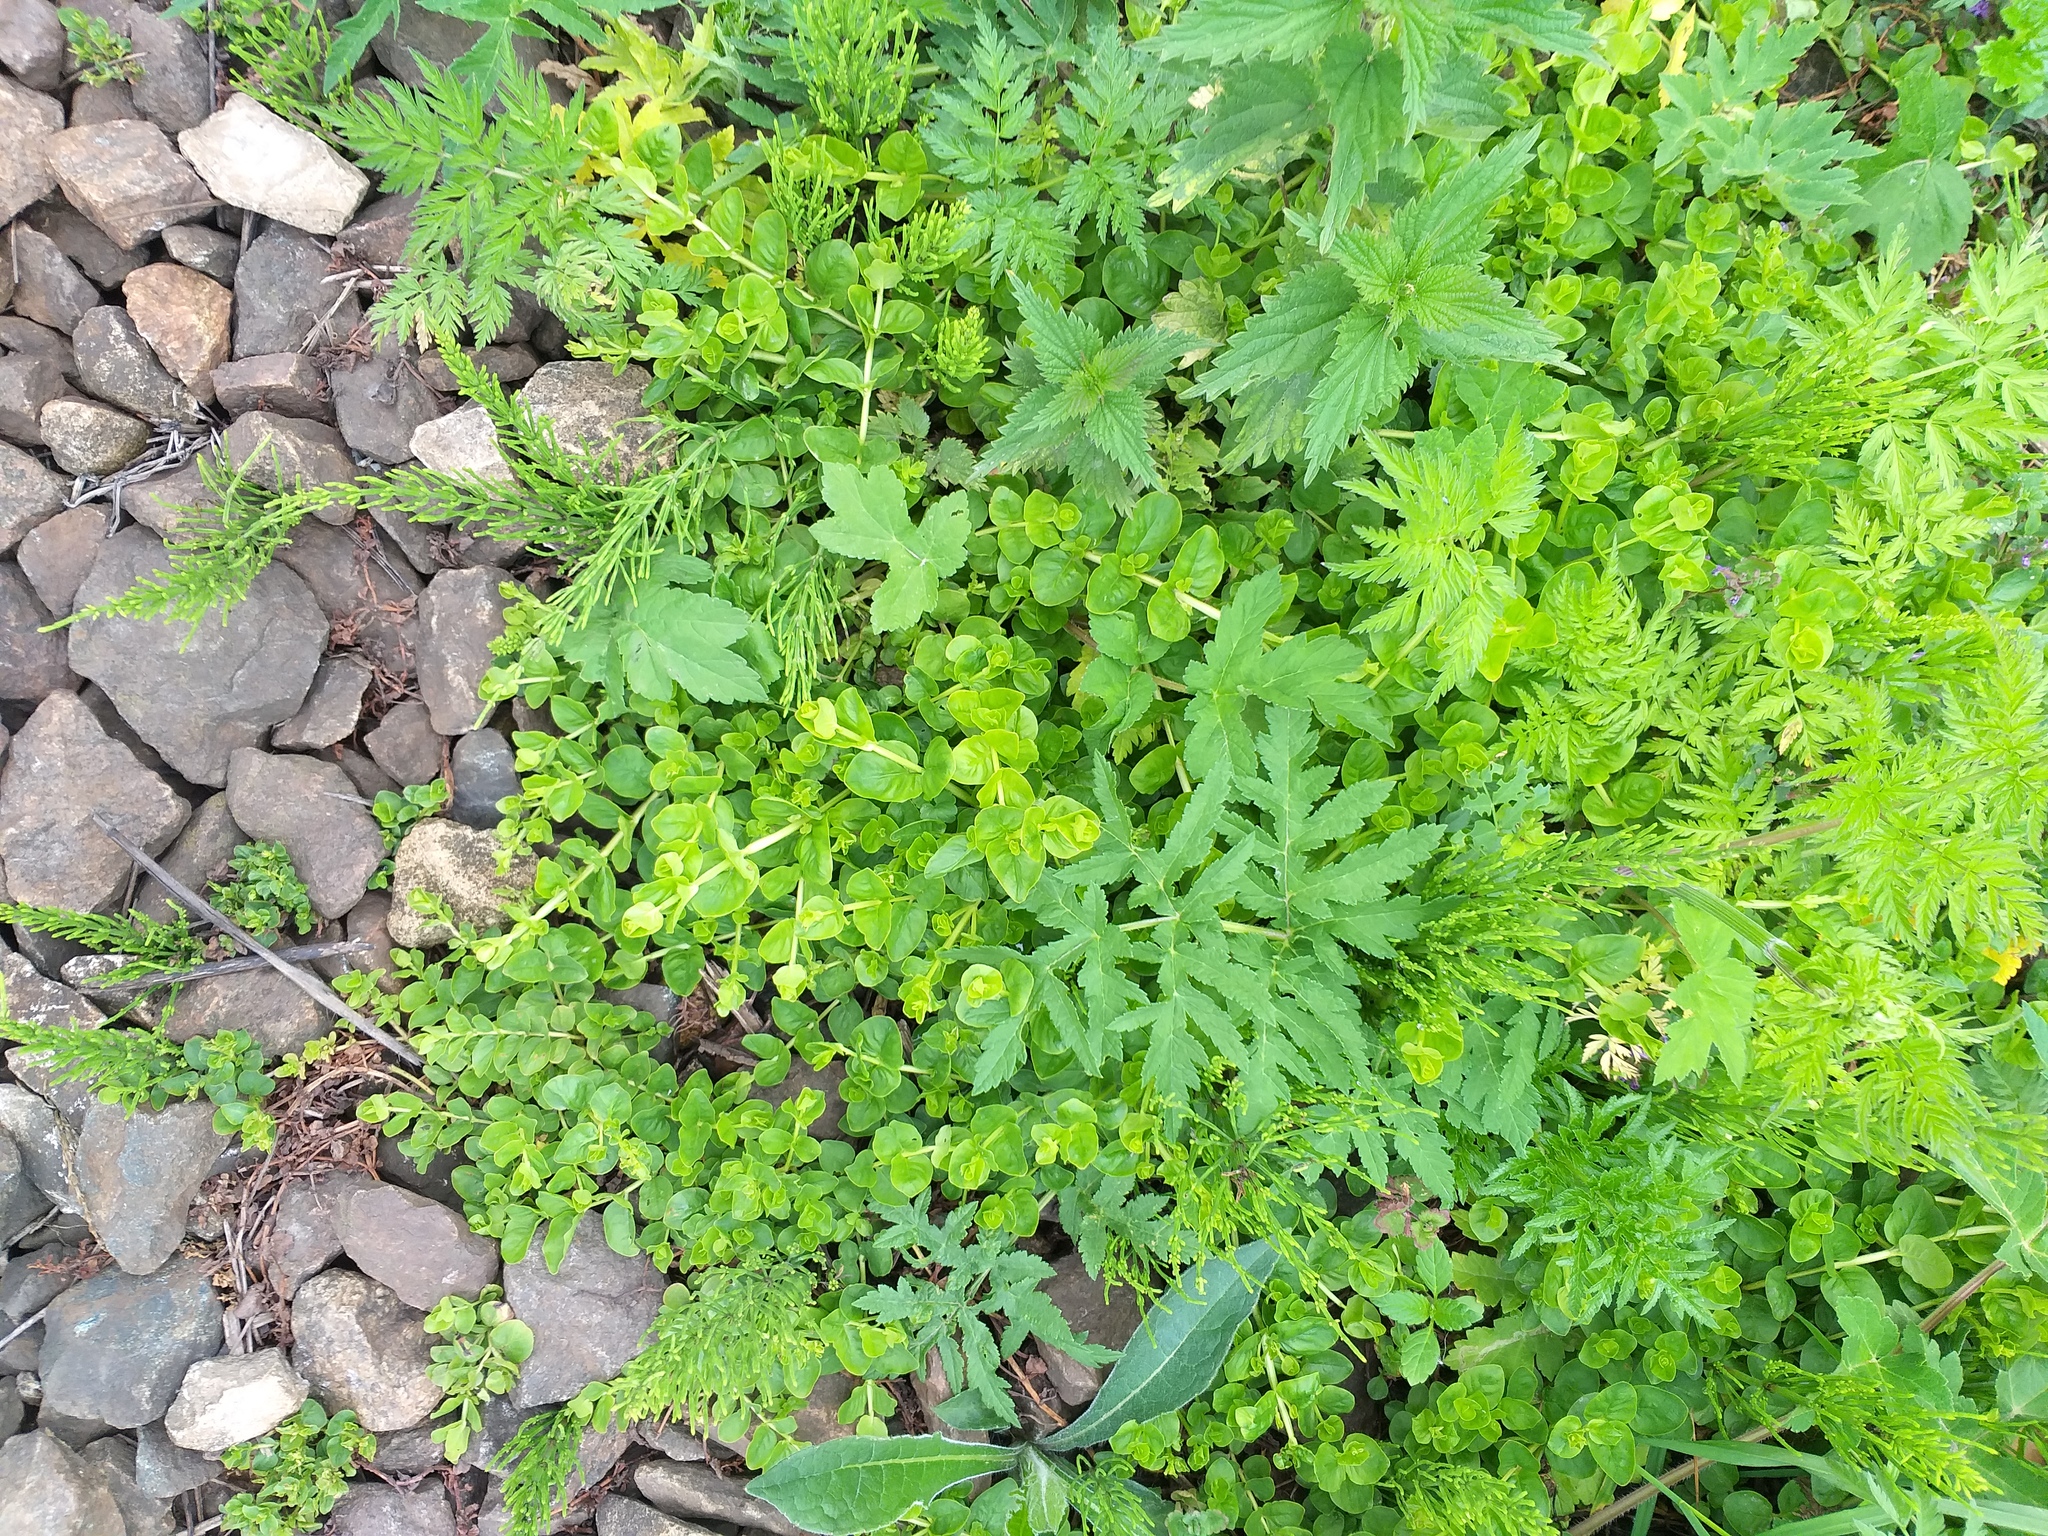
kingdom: Plantae
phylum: Tracheophyta
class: Magnoliopsida
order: Ericales
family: Primulaceae
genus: Lysimachia
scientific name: Lysimachia nummularia
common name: Moneywort
